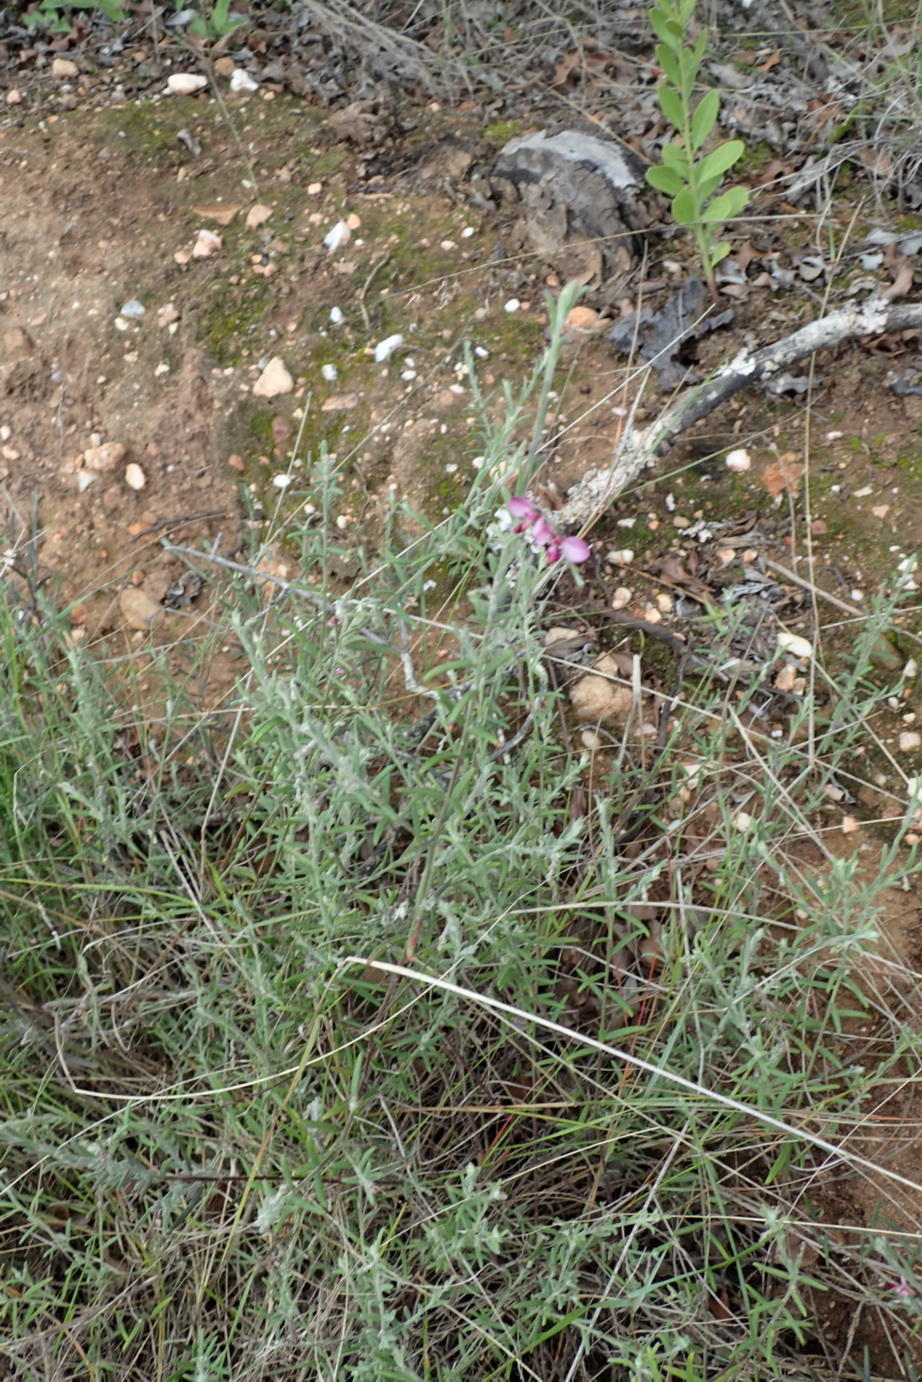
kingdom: Plantae
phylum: Tracheophyta
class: Magnoliopsida
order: Fabales
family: Polygalaceae
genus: Polygala
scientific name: Polygala scabra
